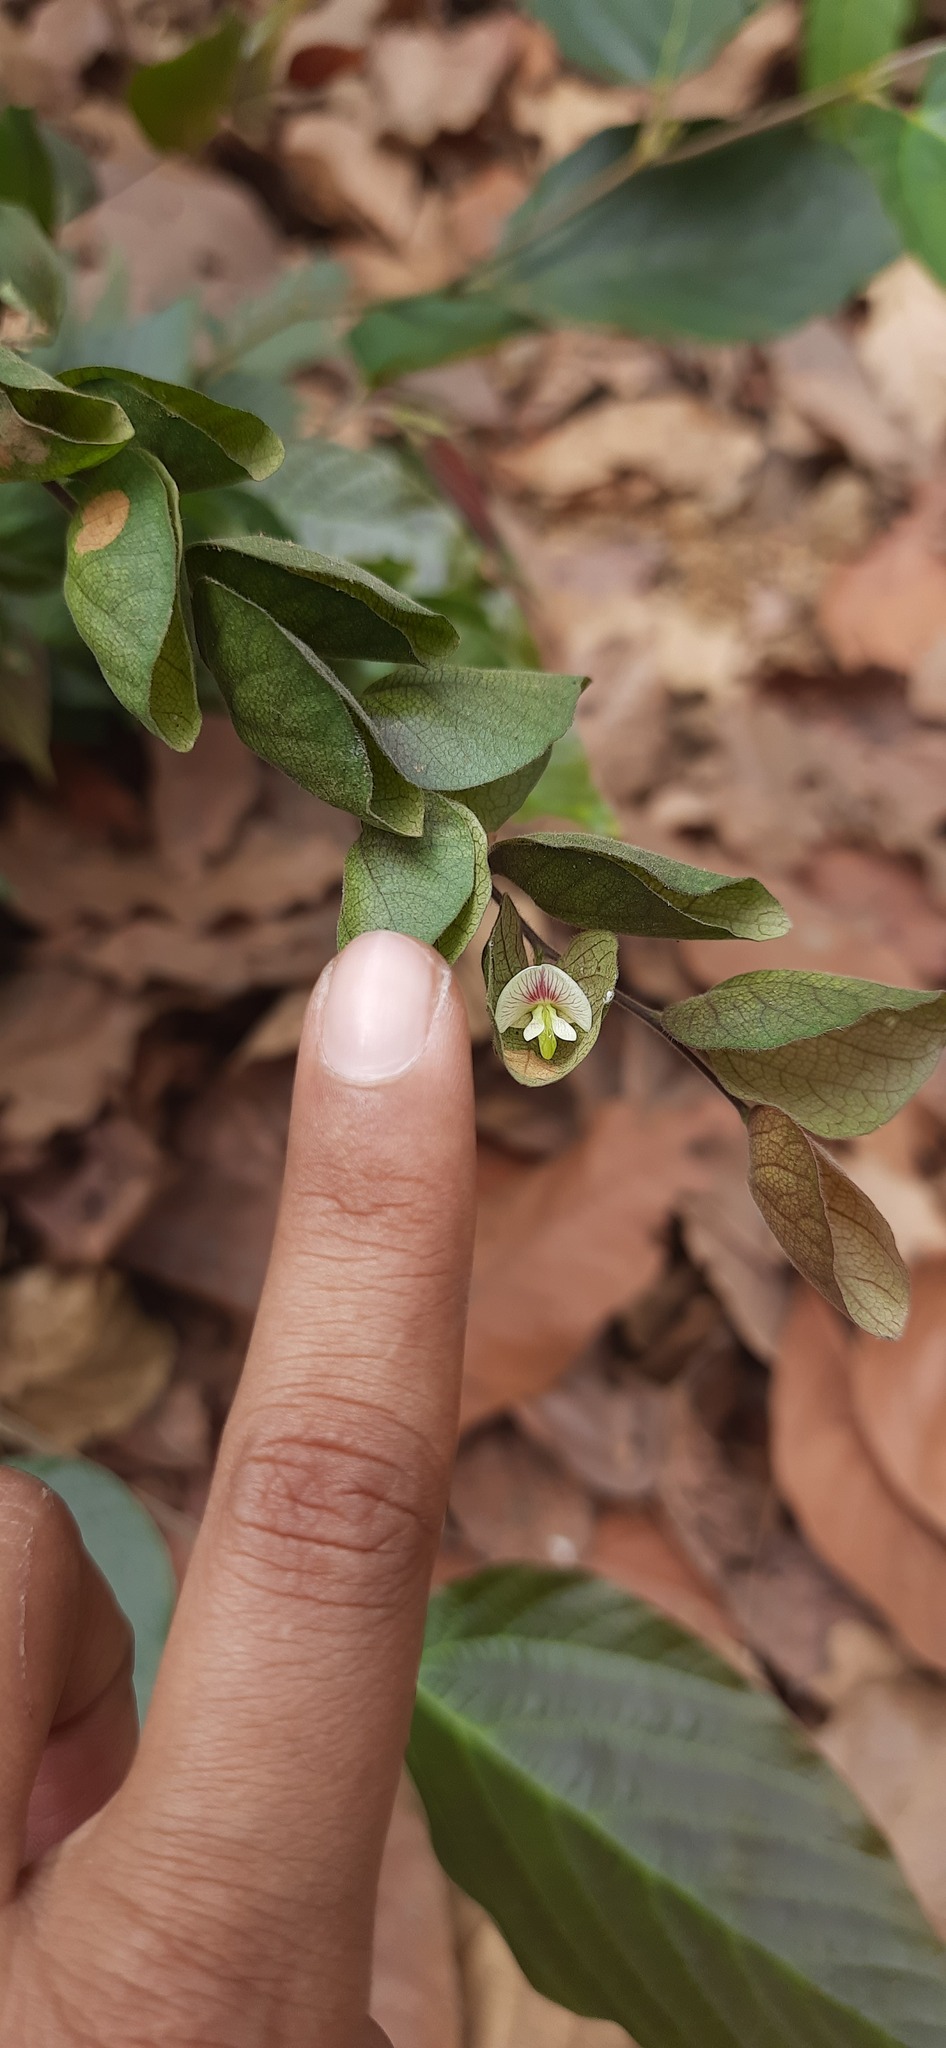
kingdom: Plantae
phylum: Tracheophyta
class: Magnoliopsida
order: Fabales
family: Fabaceae
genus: Flemingia
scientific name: Flemingia strobilifera
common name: Wild hops
